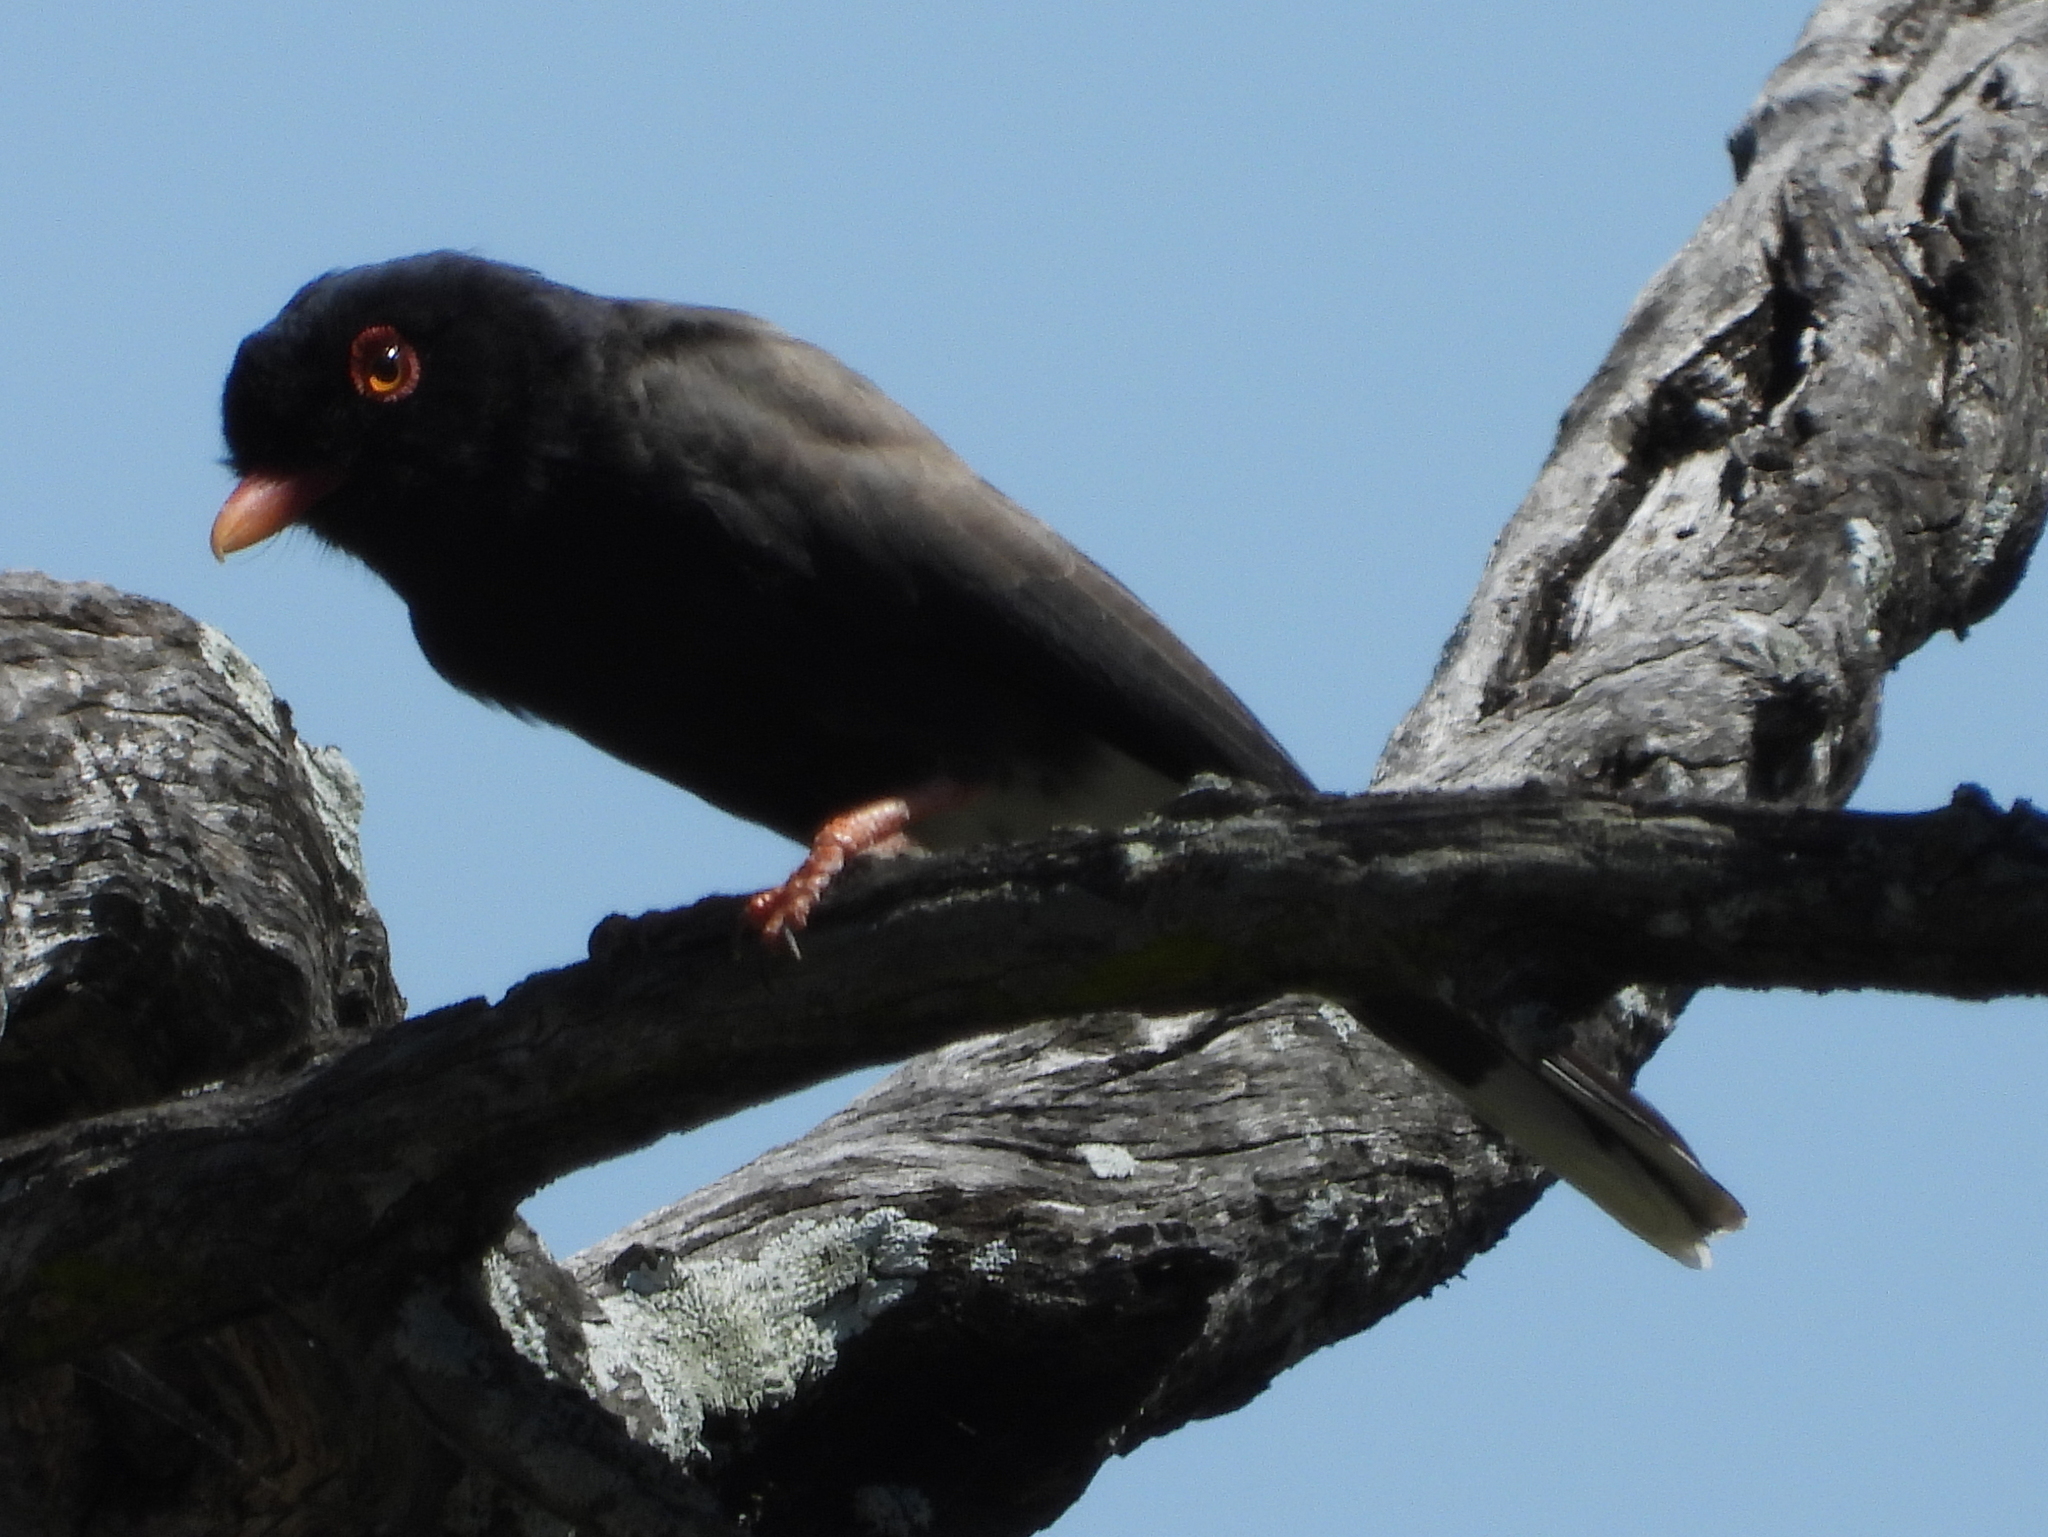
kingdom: Animalia
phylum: Chordata
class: Aves
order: Passeriformes
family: Prionopidae
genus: Prionops
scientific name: Prionops retzii
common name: Retz's helmetshrike
